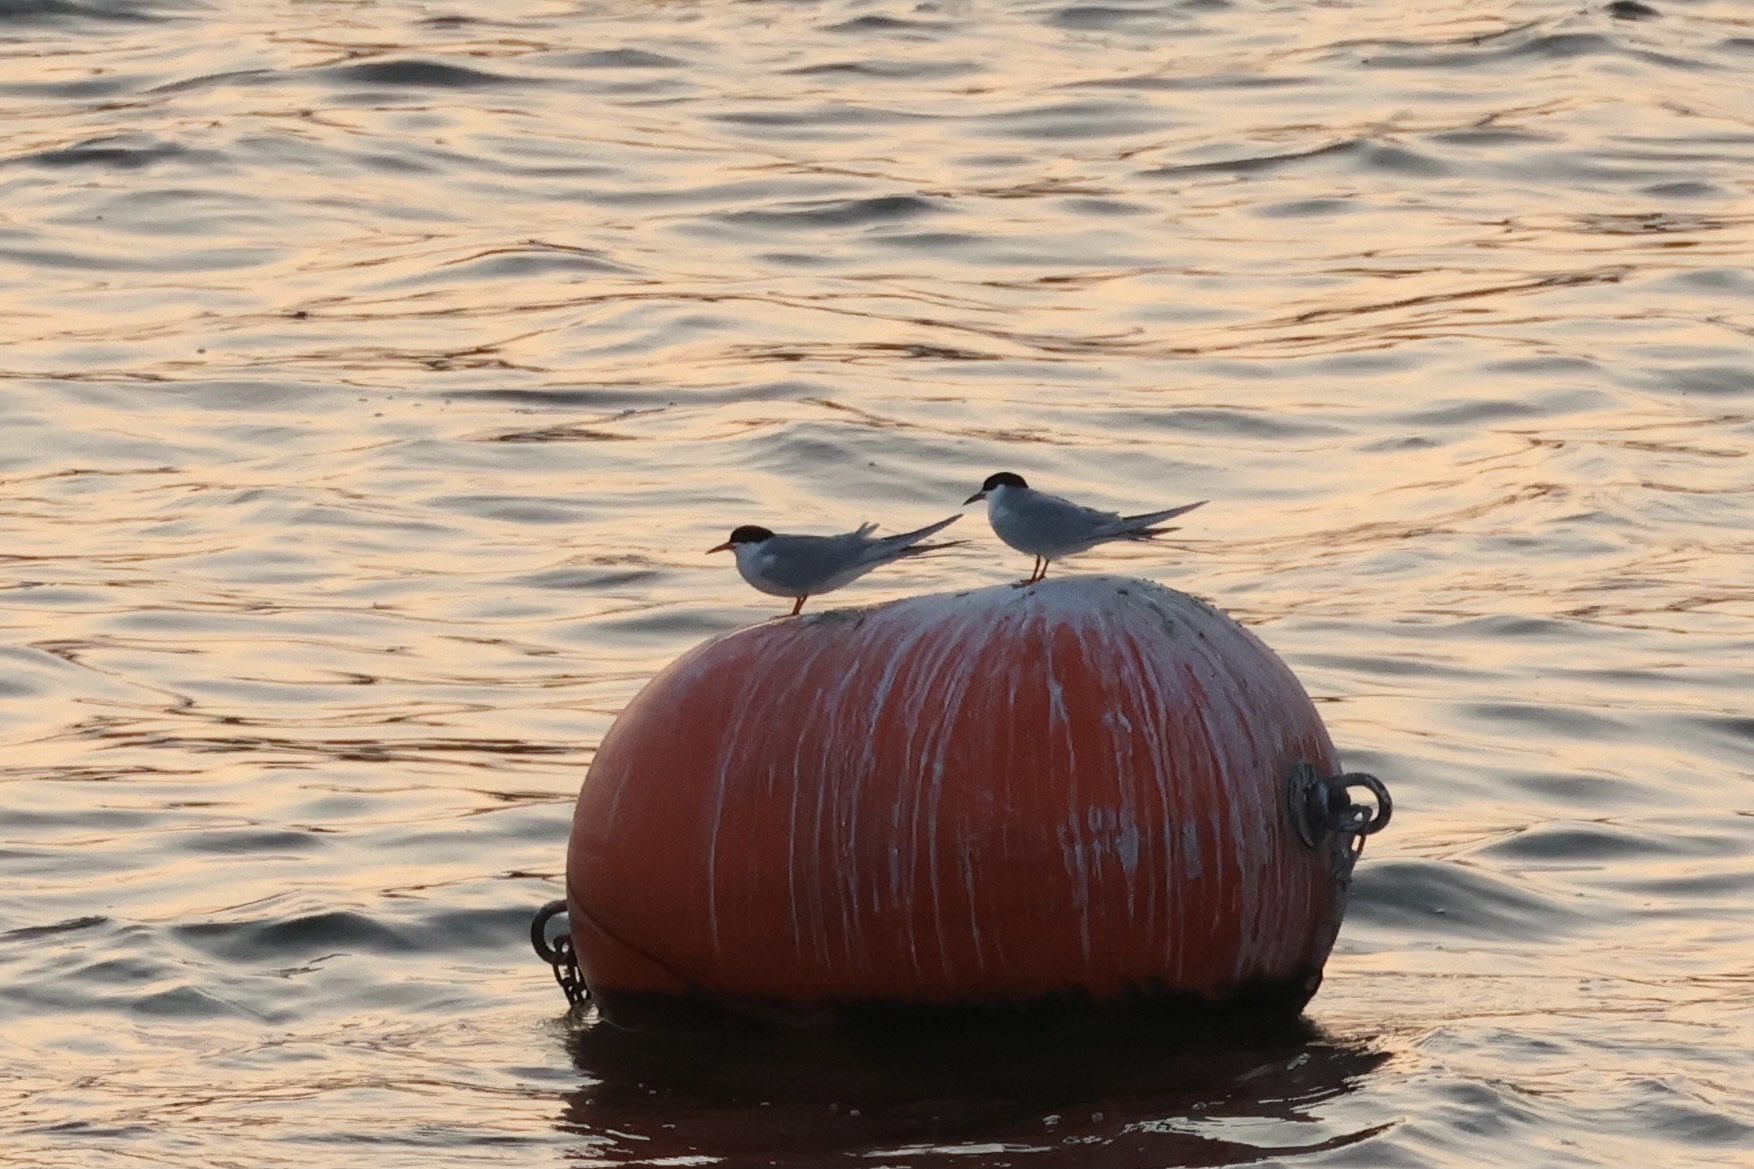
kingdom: Animalia
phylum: Chordata
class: Aves
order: Charadriiformes
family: Laridae
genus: Sterna
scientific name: Sterna forsteri
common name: Forster's tern
